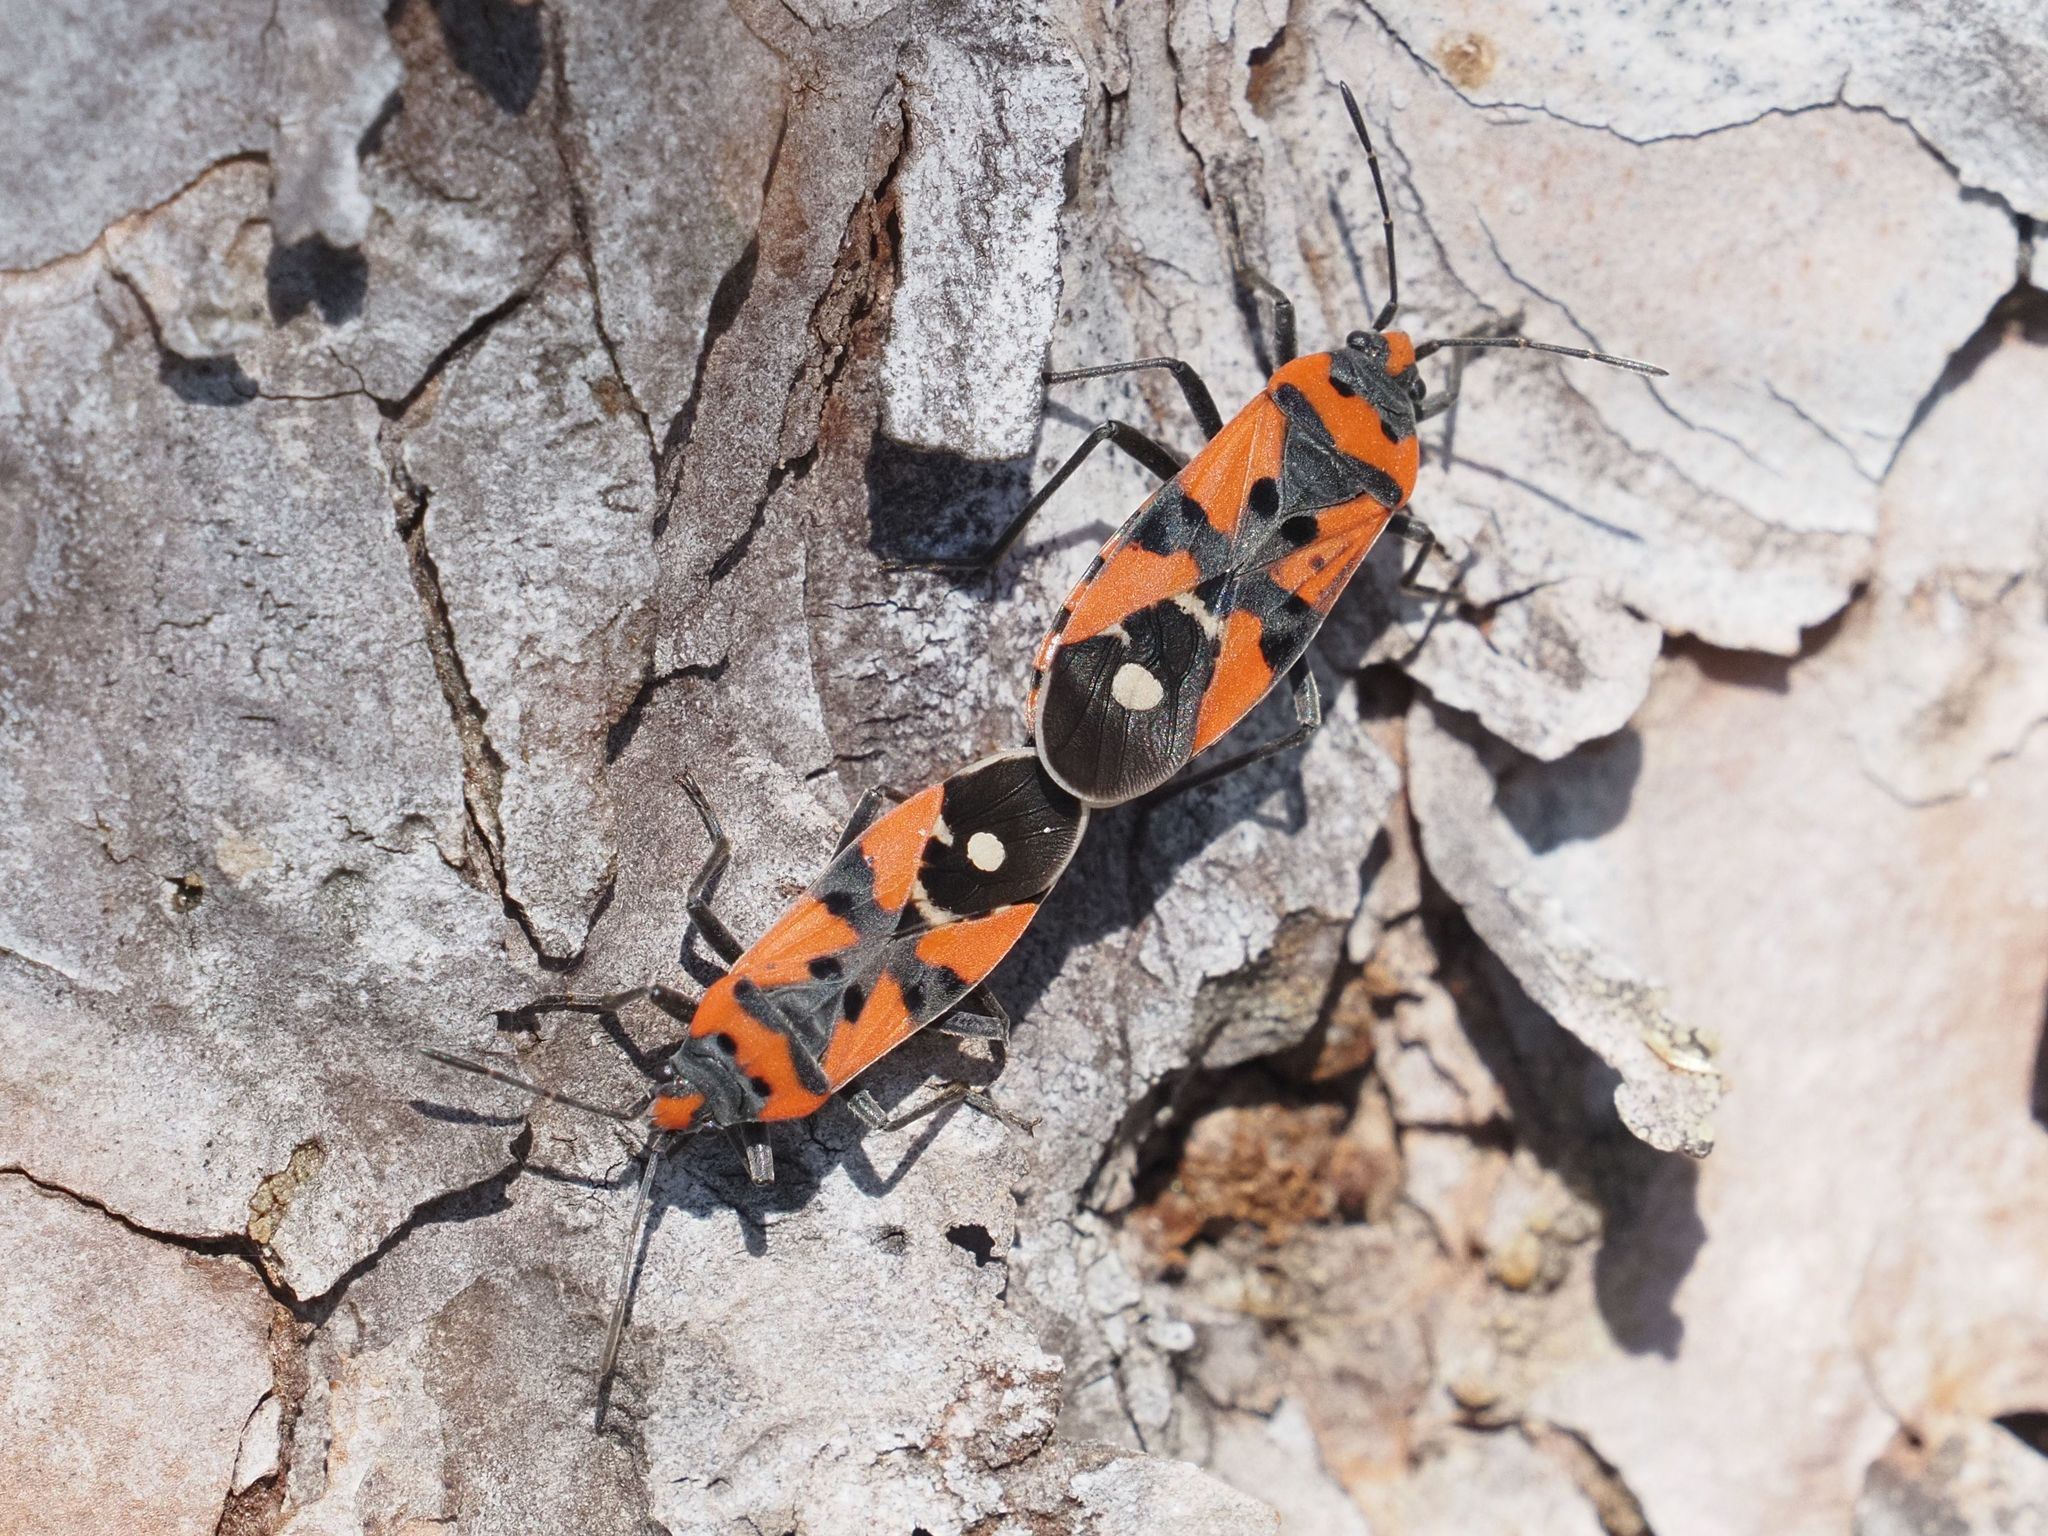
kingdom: Animalia
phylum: Arthropoda
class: Insecta
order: Hemiptera
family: Lygaeidae
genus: Lygaeus
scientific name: Lygaeus equestris
